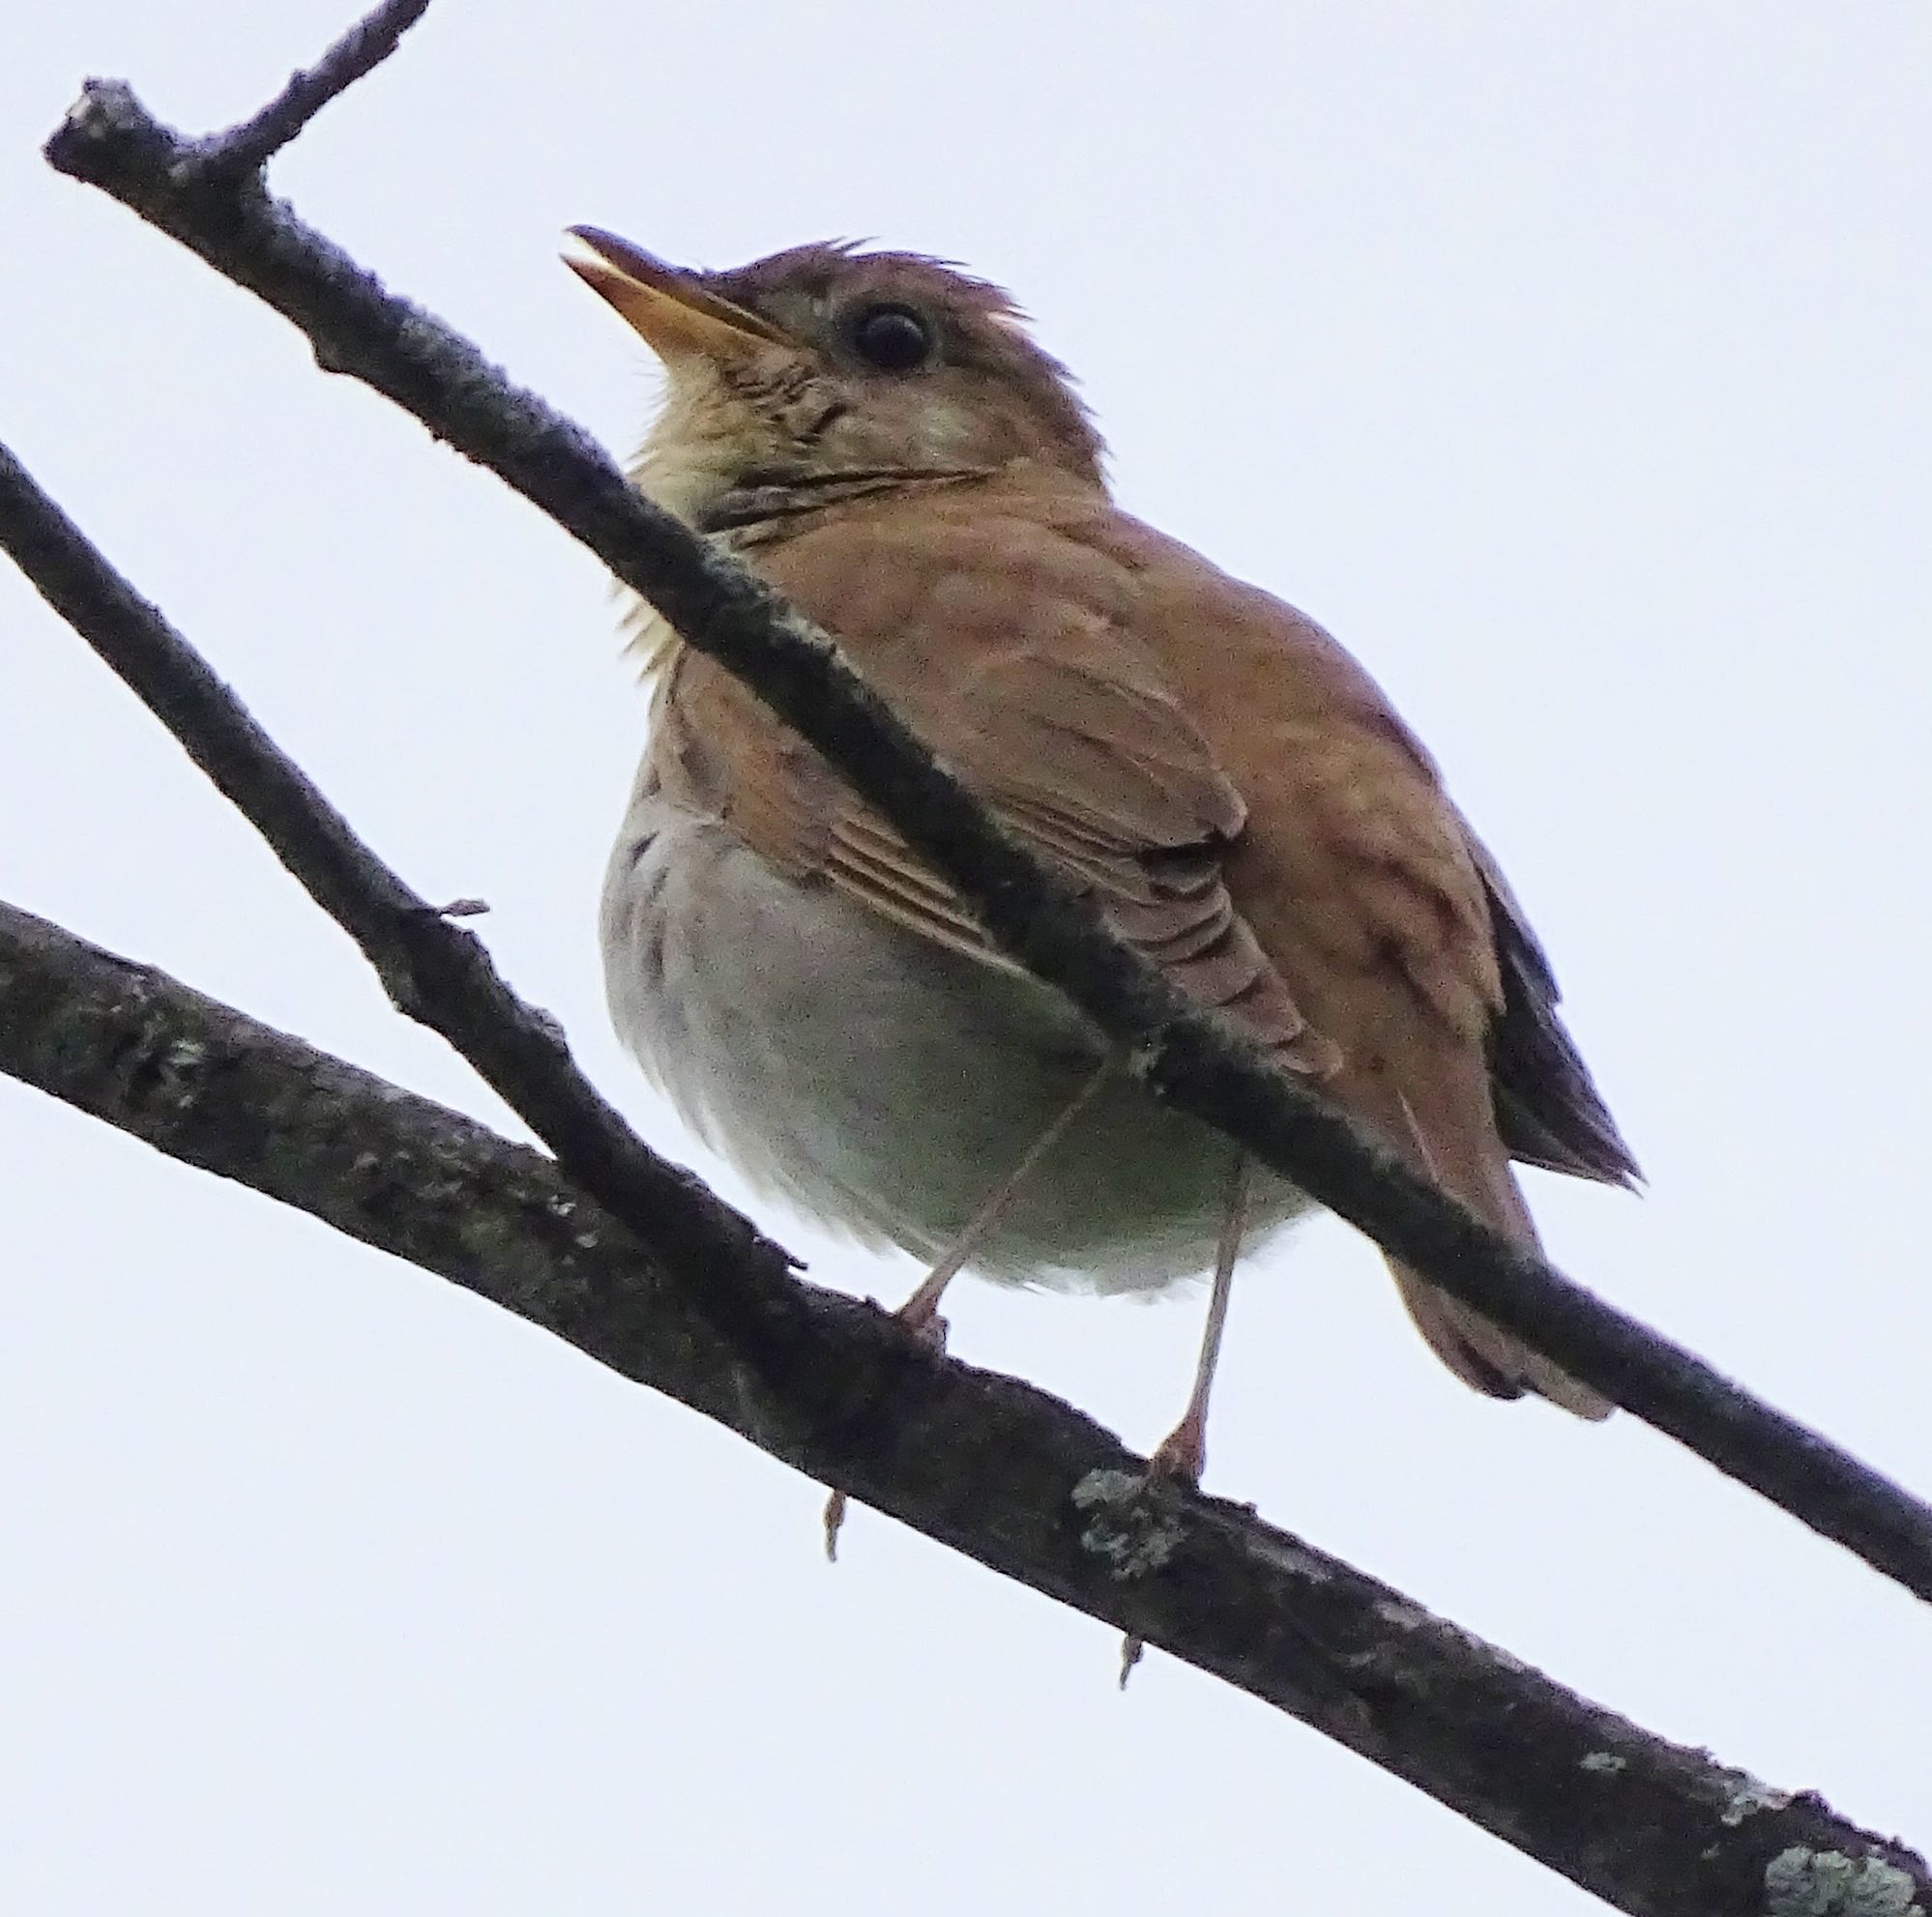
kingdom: Animalia
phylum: Chordata
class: Aves
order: Passeriformes
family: Turdidae
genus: Catharus
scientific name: Catharus fuscescens
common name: Veery
